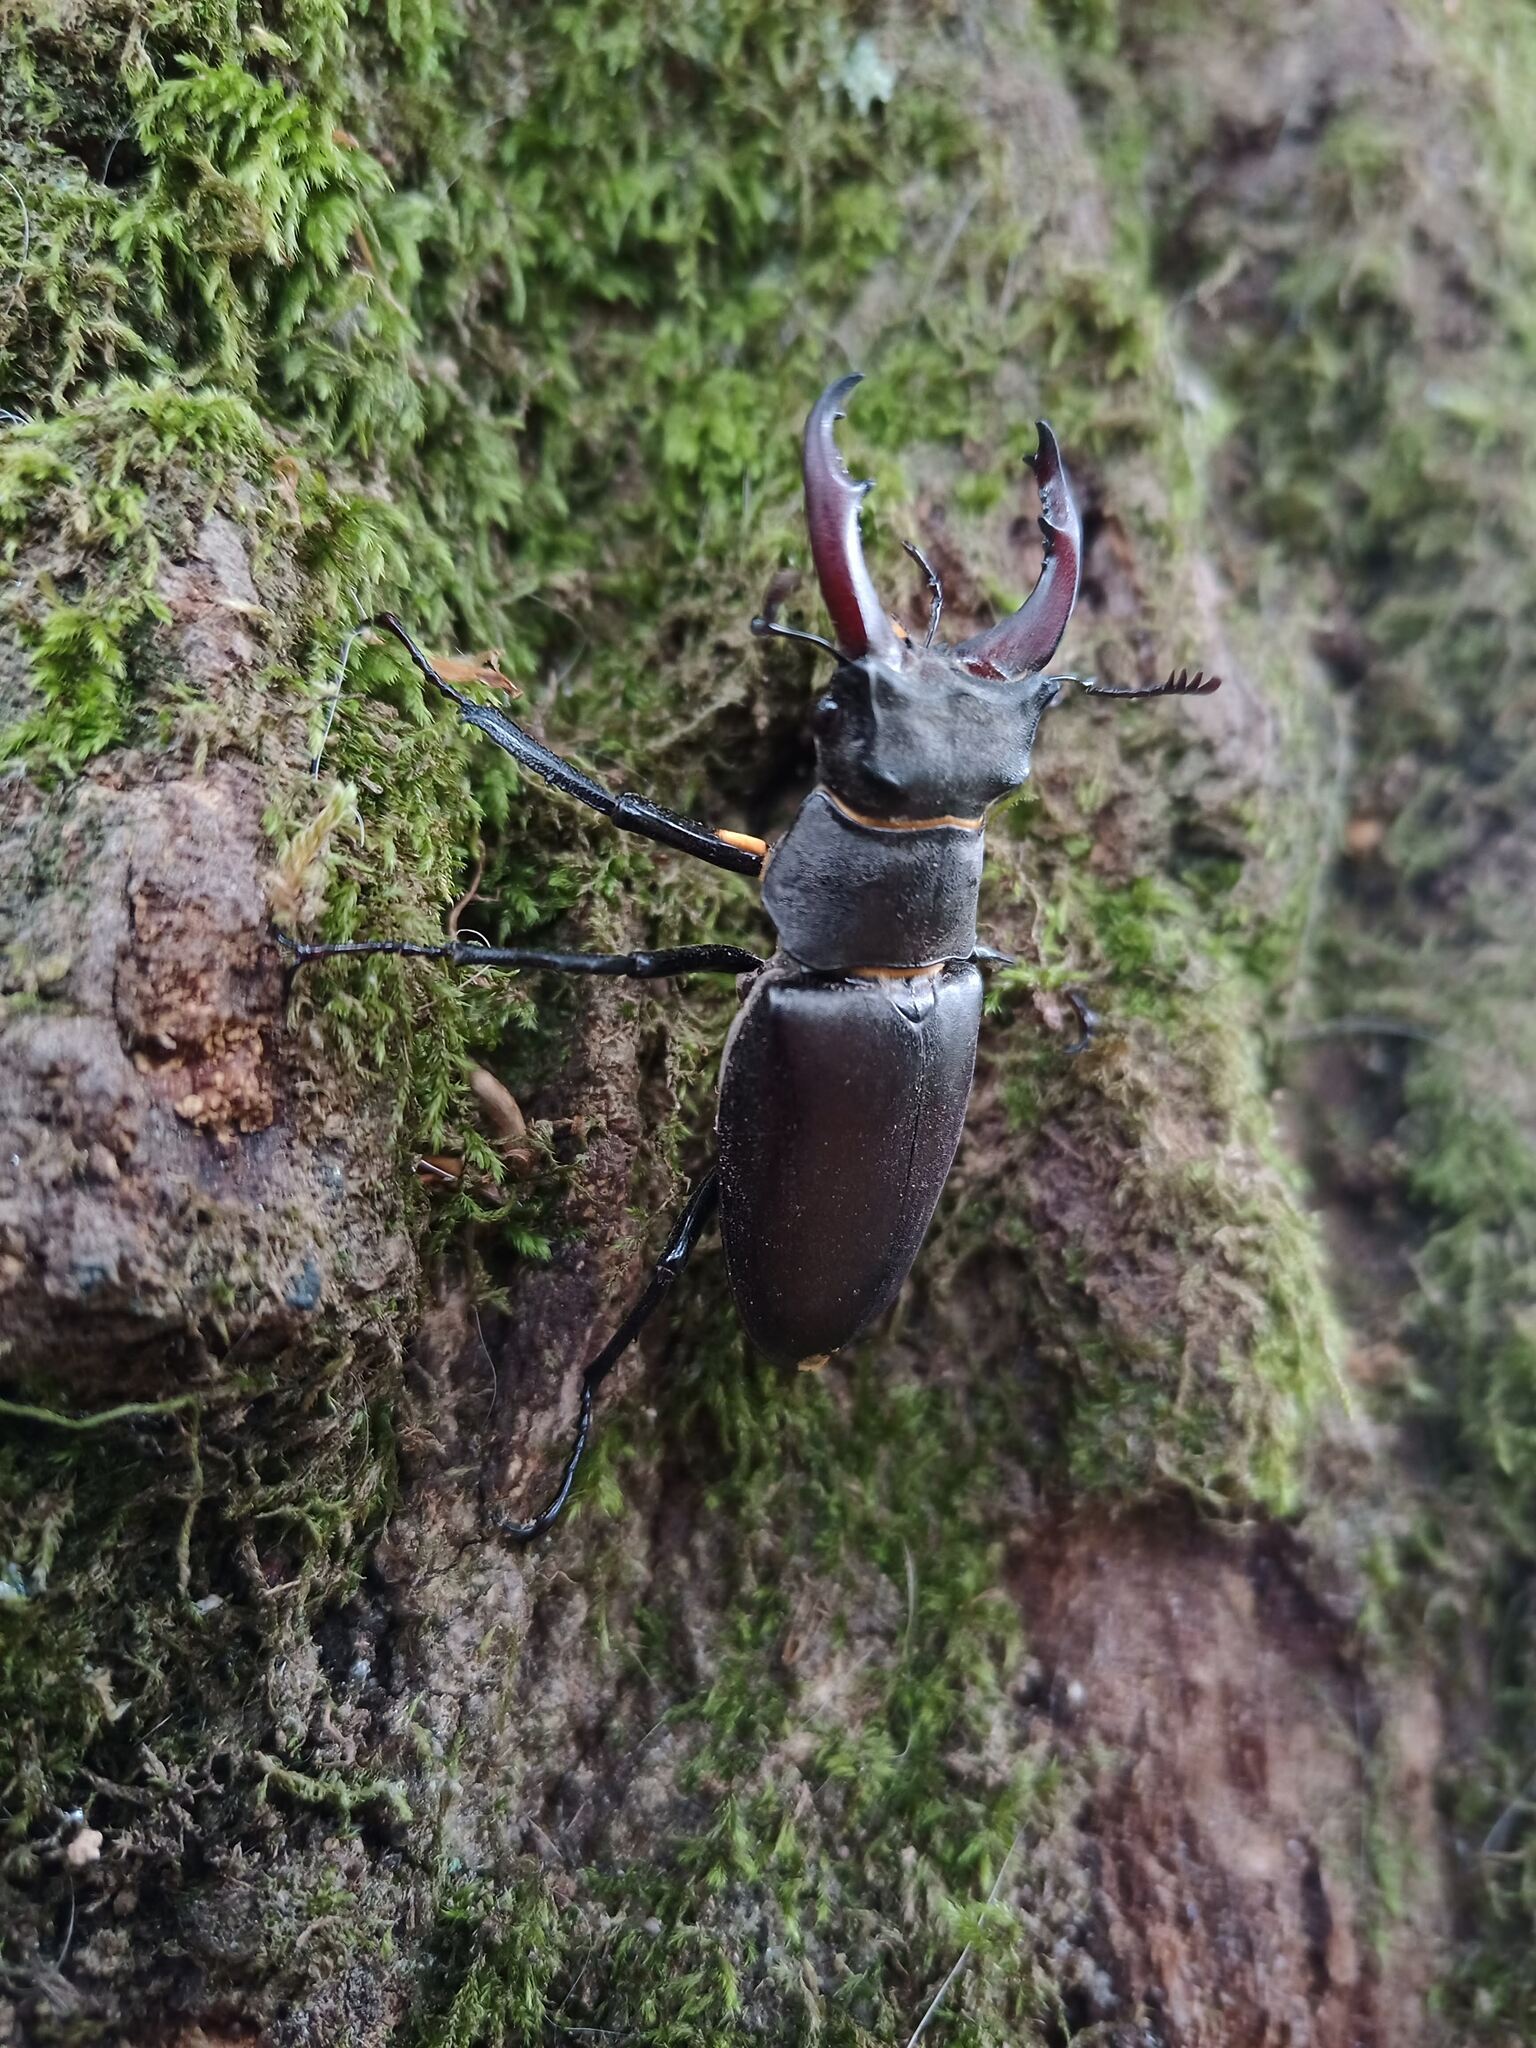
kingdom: Animalia
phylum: Arthropoda
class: Insecta
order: Coleoptera
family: Lucanidae
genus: Lucanus
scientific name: Lucanus cervus
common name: Stag beetle
